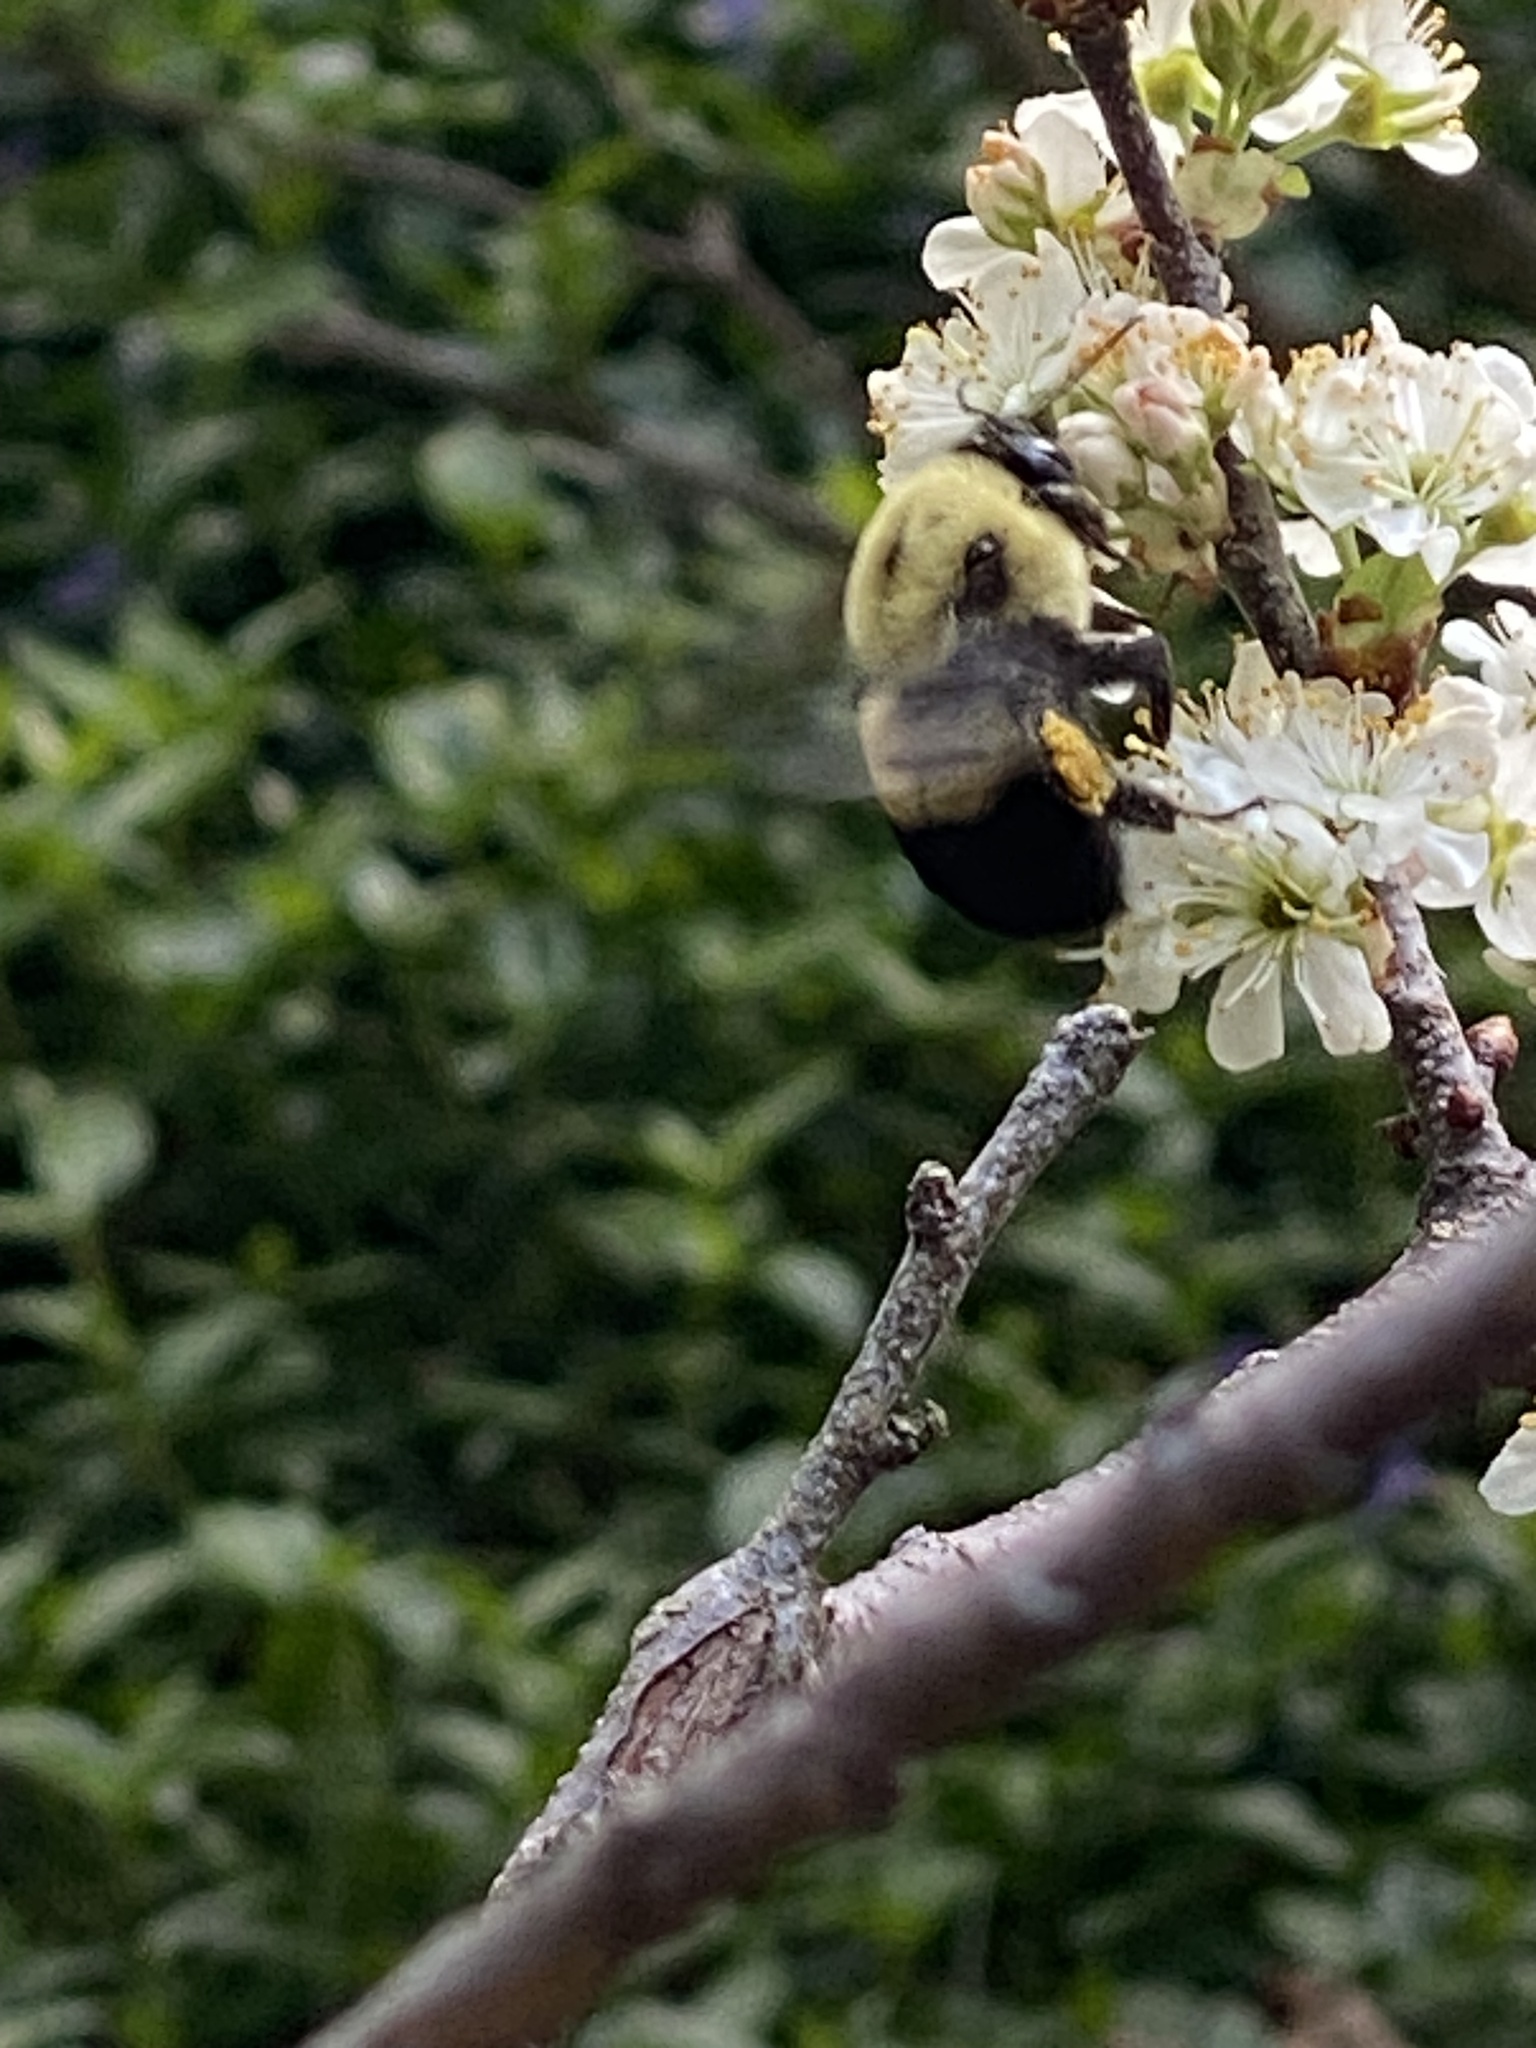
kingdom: Animalia
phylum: Arthropoda
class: Insecta
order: Hymenoptera
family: Apidae
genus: Bombus
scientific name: Bombus griseocollis
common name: Brown-belted bumble bee
